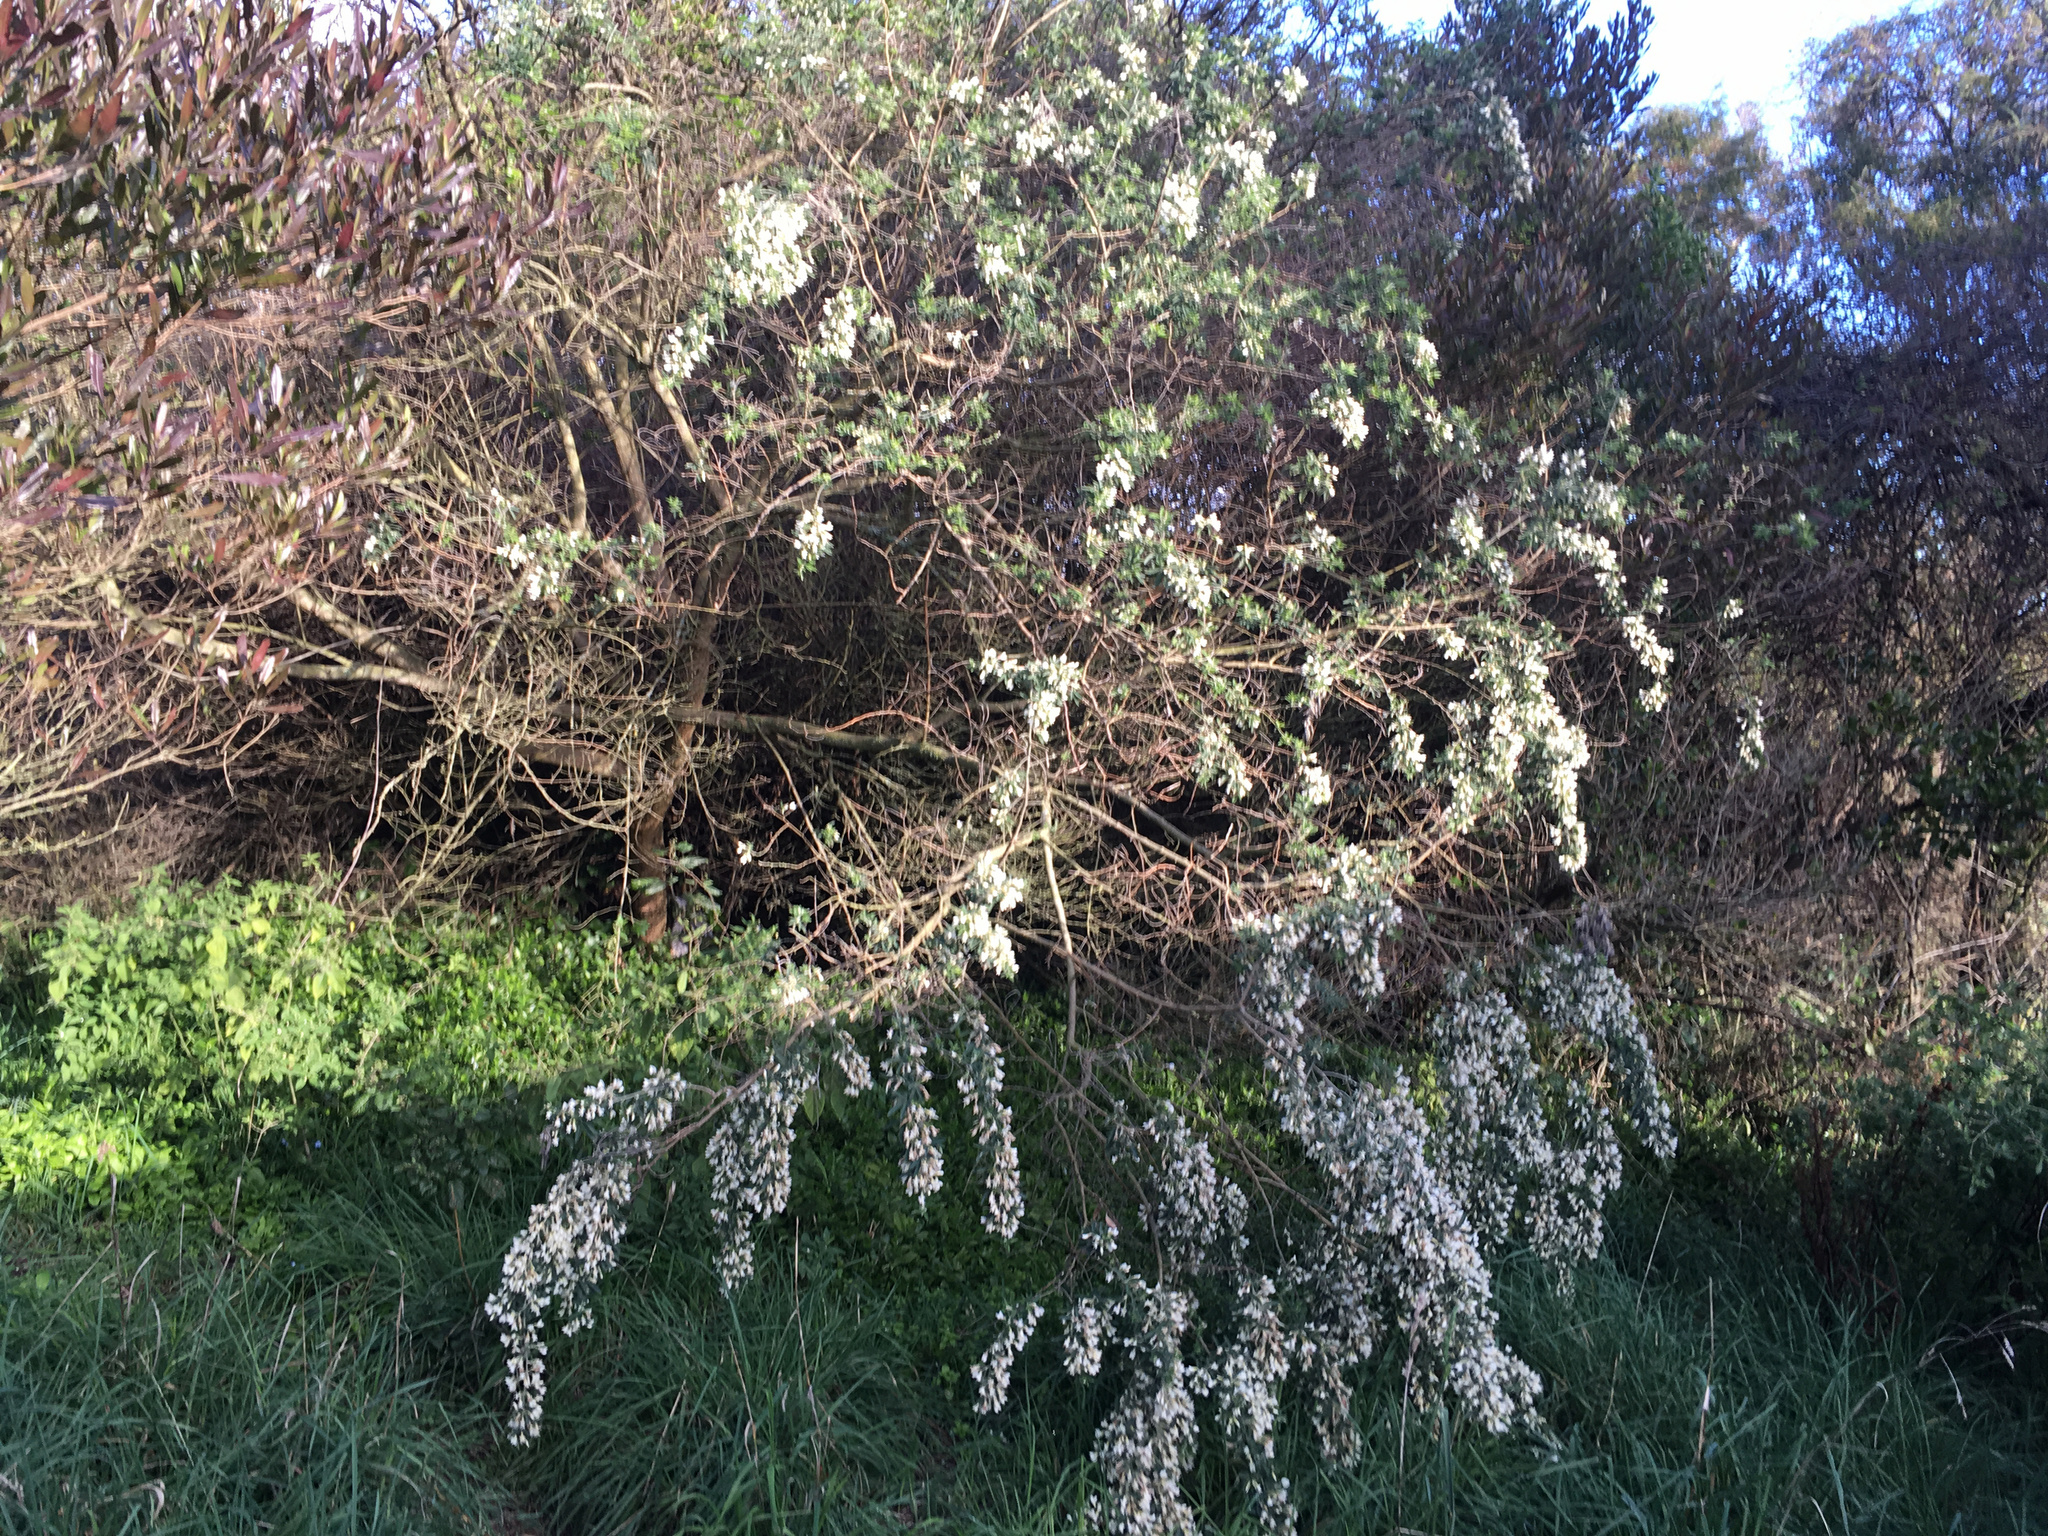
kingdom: Plantae
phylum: Tracheophyta
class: Magnoliopsida
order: Fabales
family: Fabaceae
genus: Chamaecytisus
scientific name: Chamaecytisus prolifer
